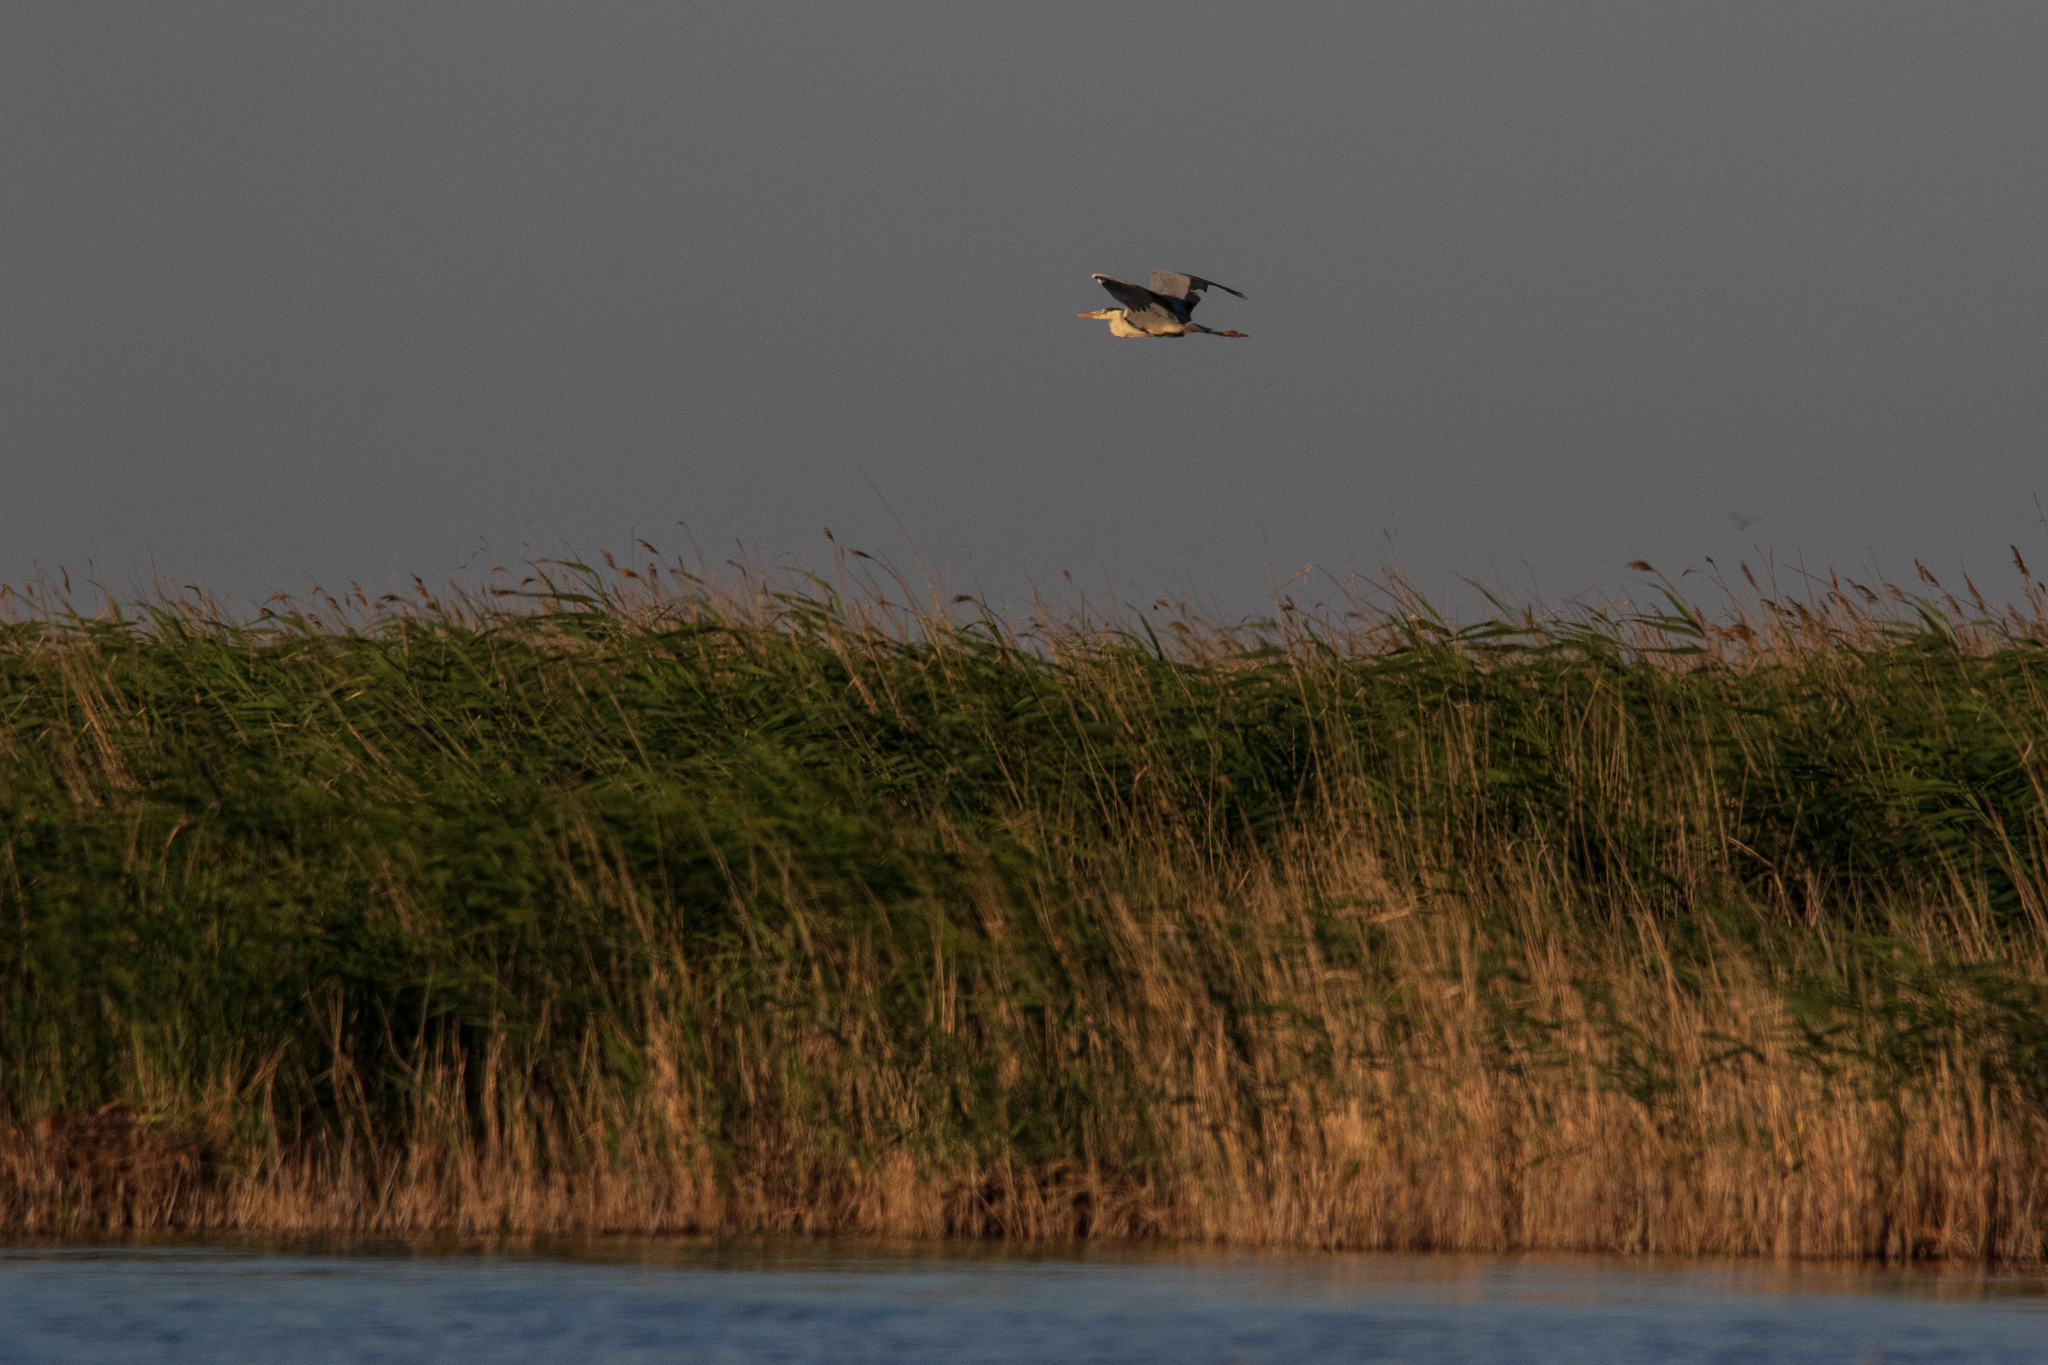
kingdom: Animalia
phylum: Chordata
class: Aves
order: Pelecaniformes
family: Ardeidae
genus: Ardea
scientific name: Ardea cinerea
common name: Grey heron
